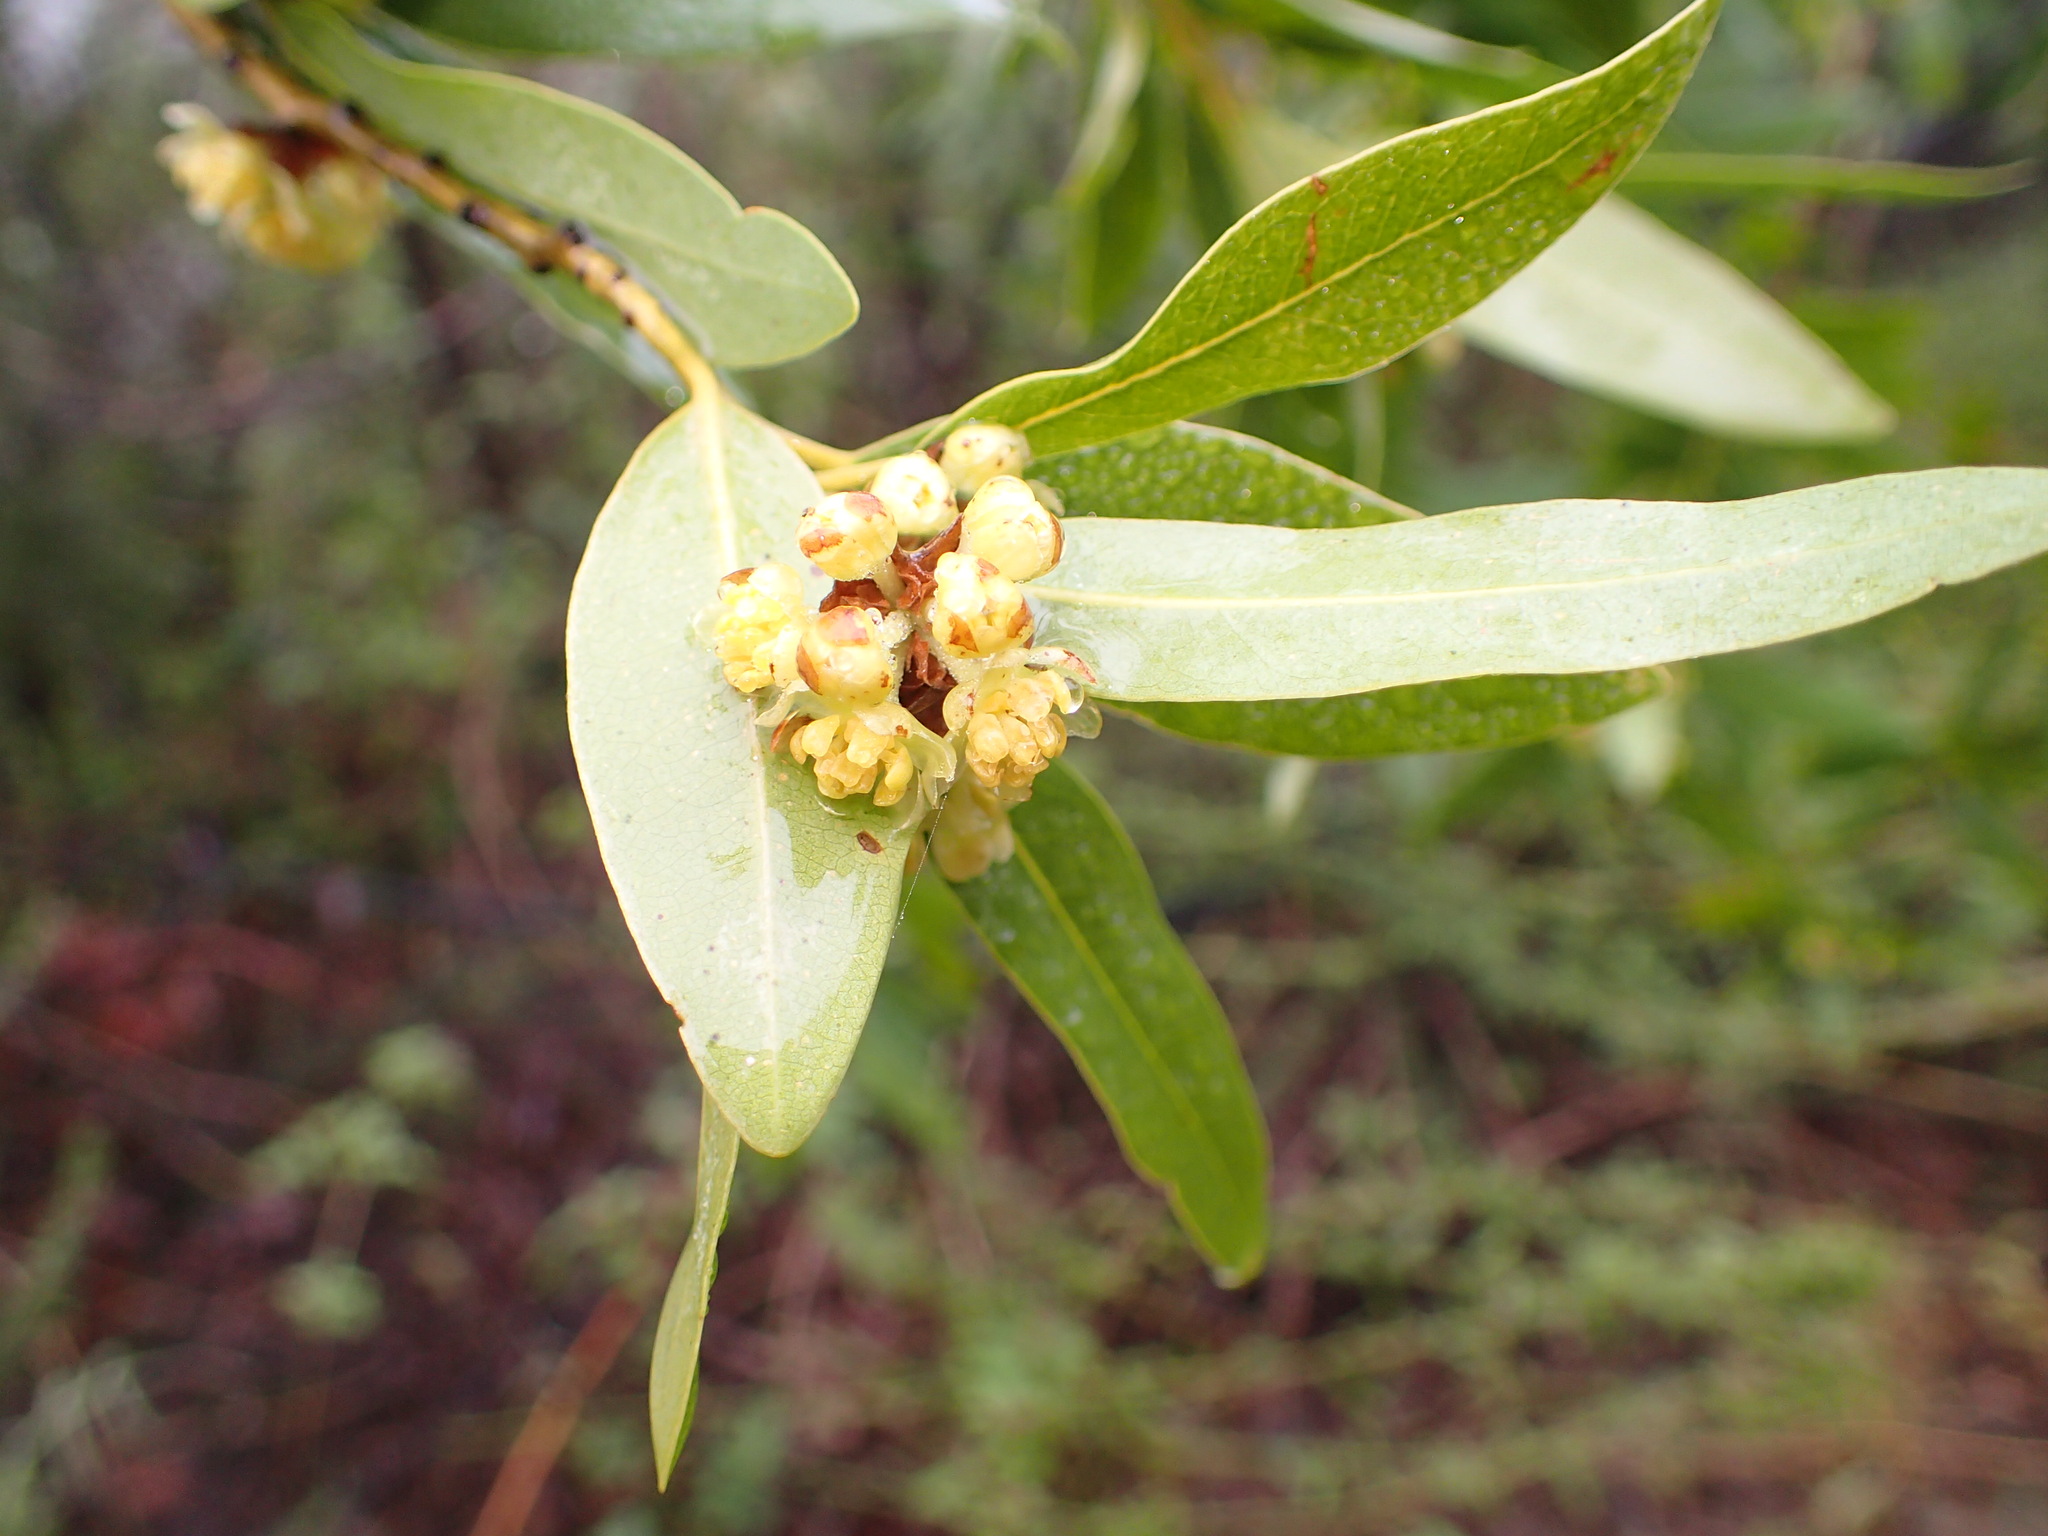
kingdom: Plantae
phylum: Tracheophyta
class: Magnoliopsida
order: Laurales
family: Lauraceae
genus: Umbellularia
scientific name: Umbellularia californica
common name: California bay
